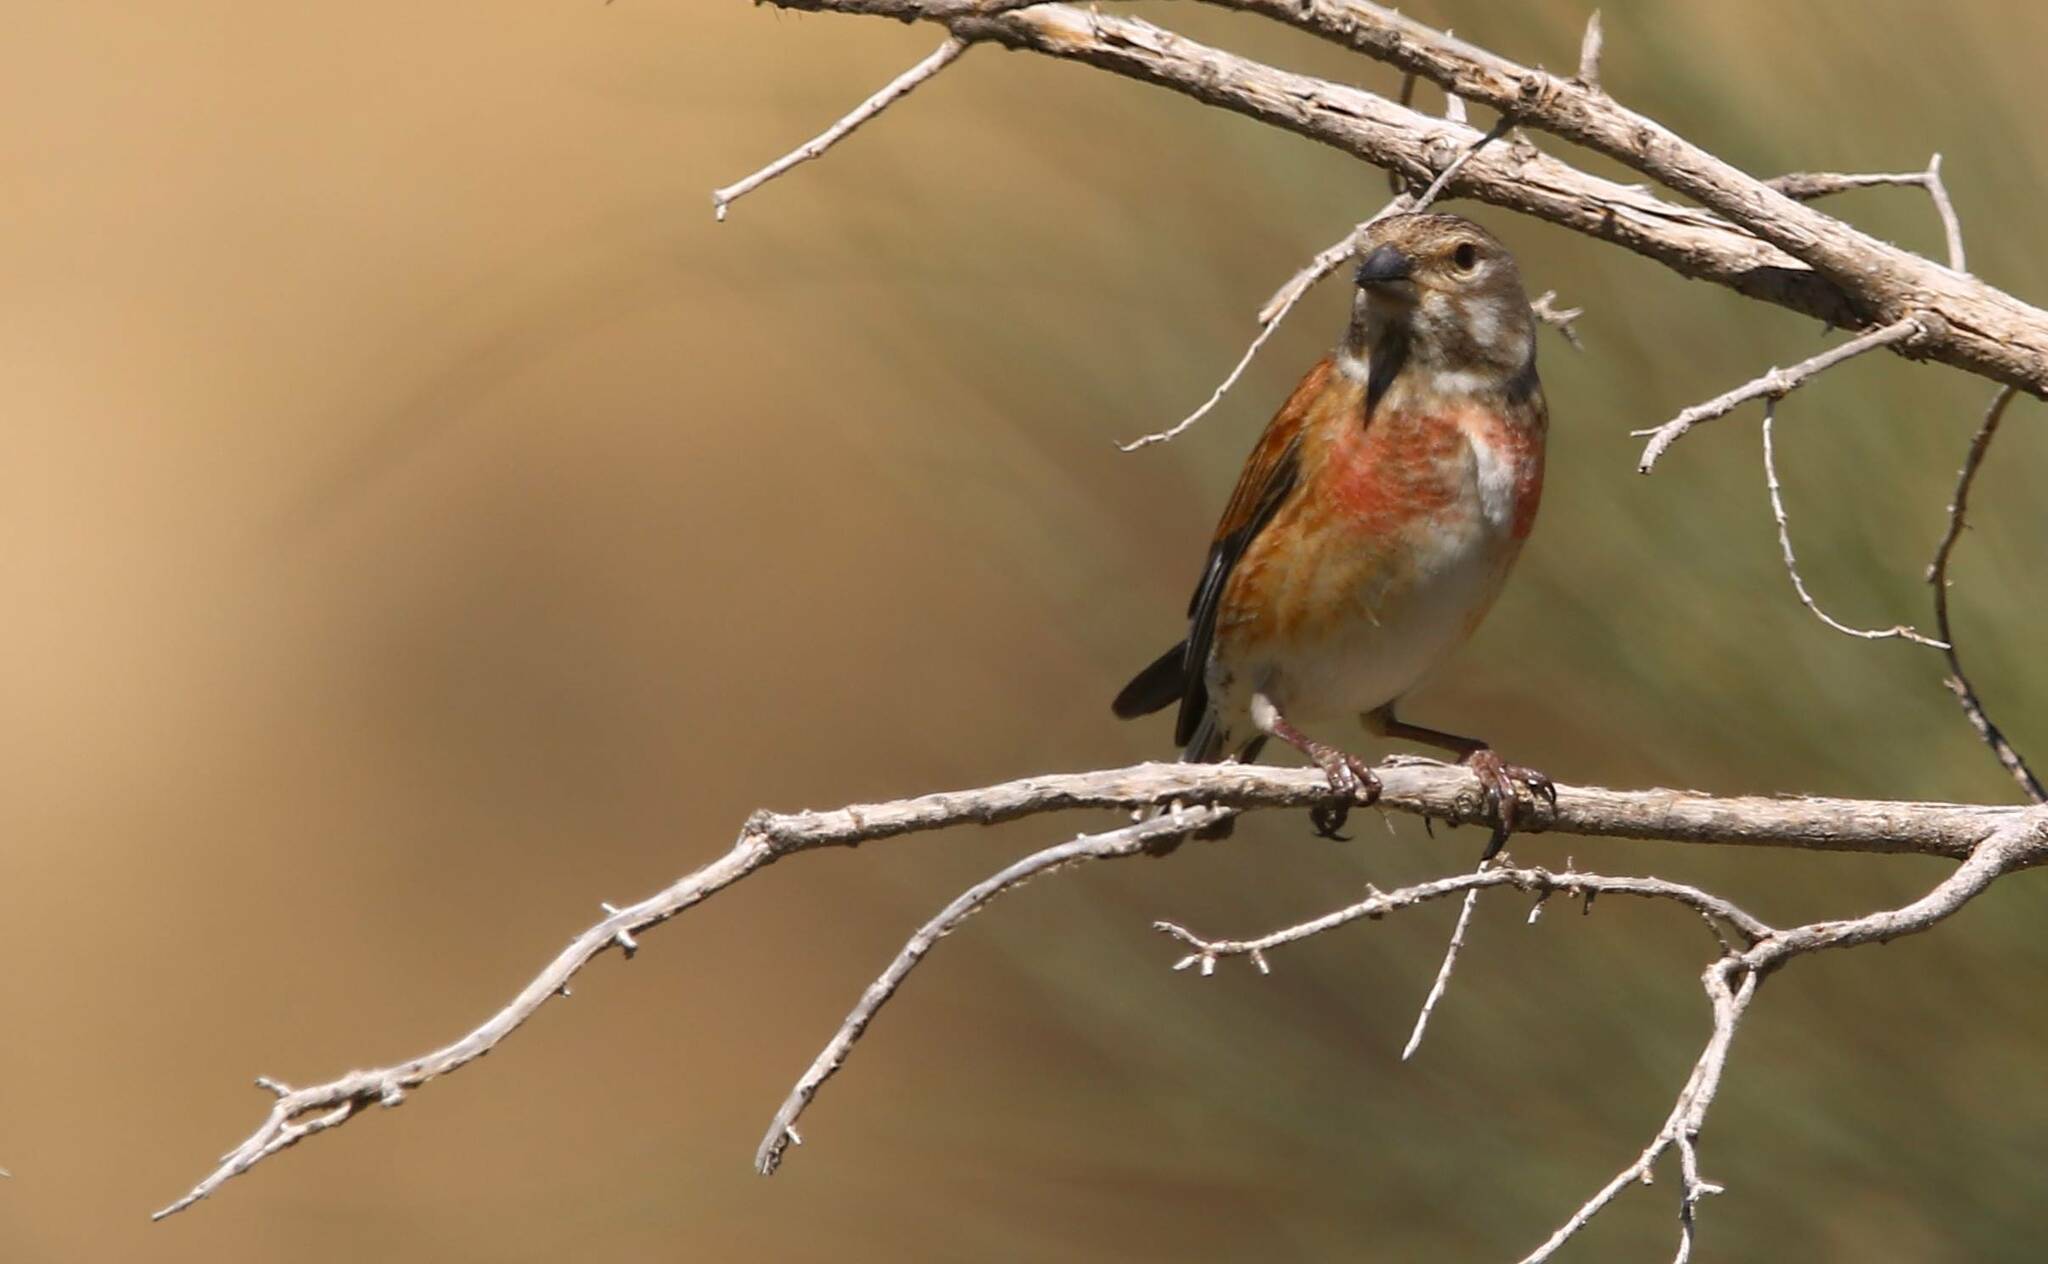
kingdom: Animalia
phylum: Chordata
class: Aves
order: Passeriformes
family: Fringillidae
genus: Linaria
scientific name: Linaria cannabina
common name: Common linnet
